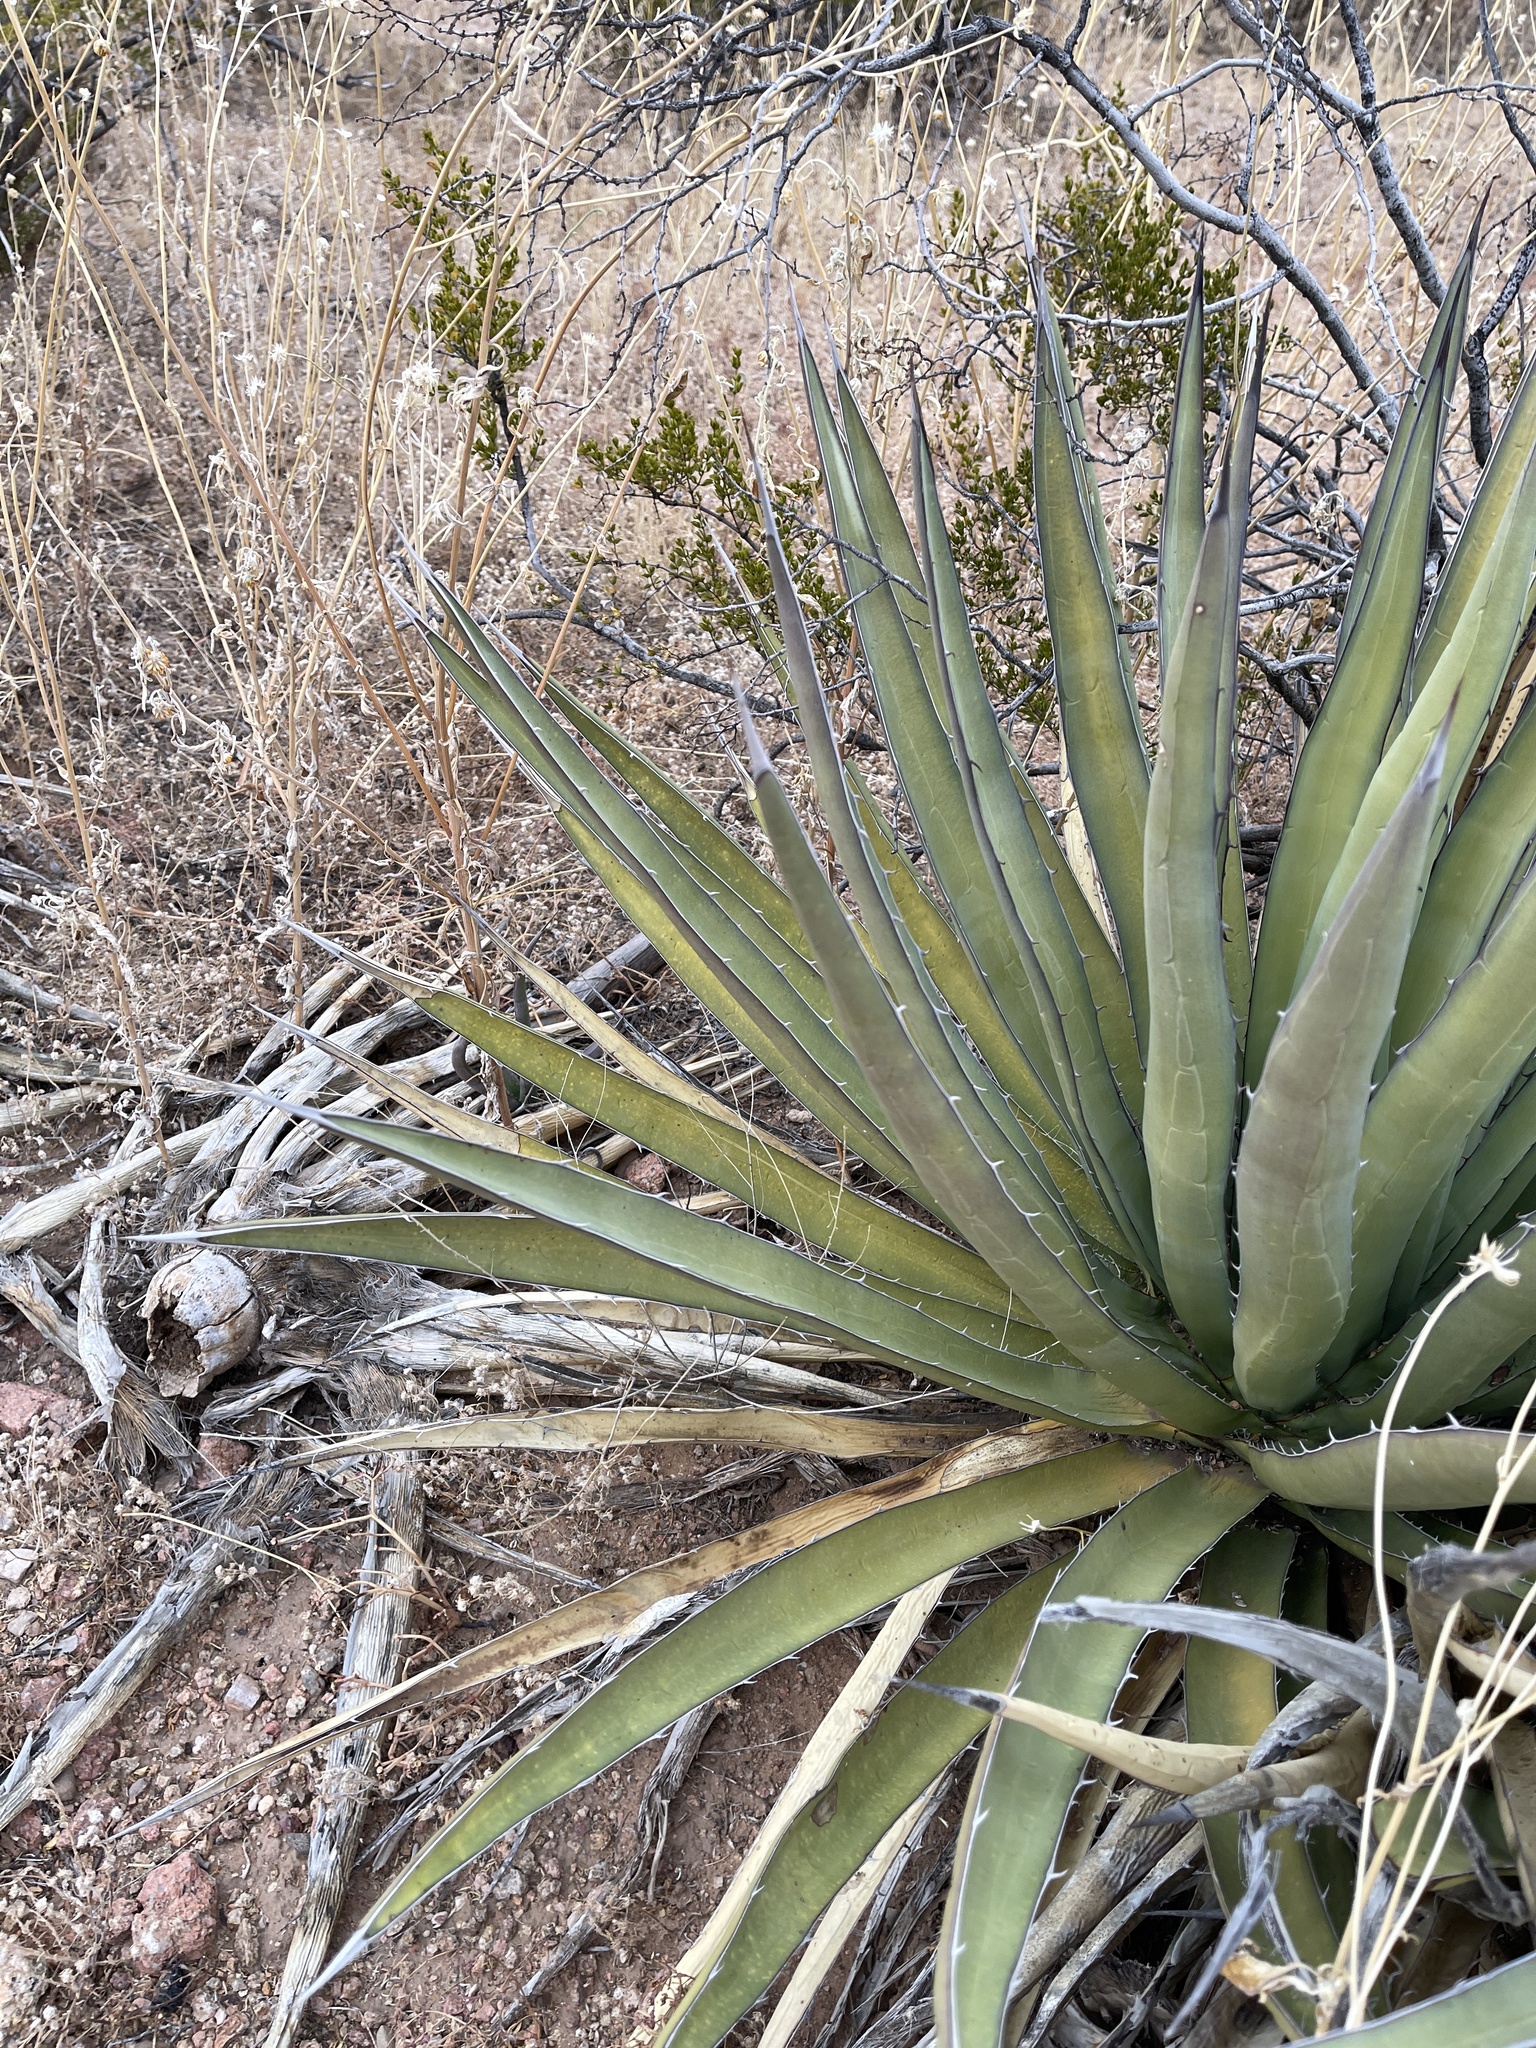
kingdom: Plantae
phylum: Tracheophyta
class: Liliopsida
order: Asparagales
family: Asparagaceae
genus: Agave
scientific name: Agave lechuguilla
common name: Lecheguilla agave
